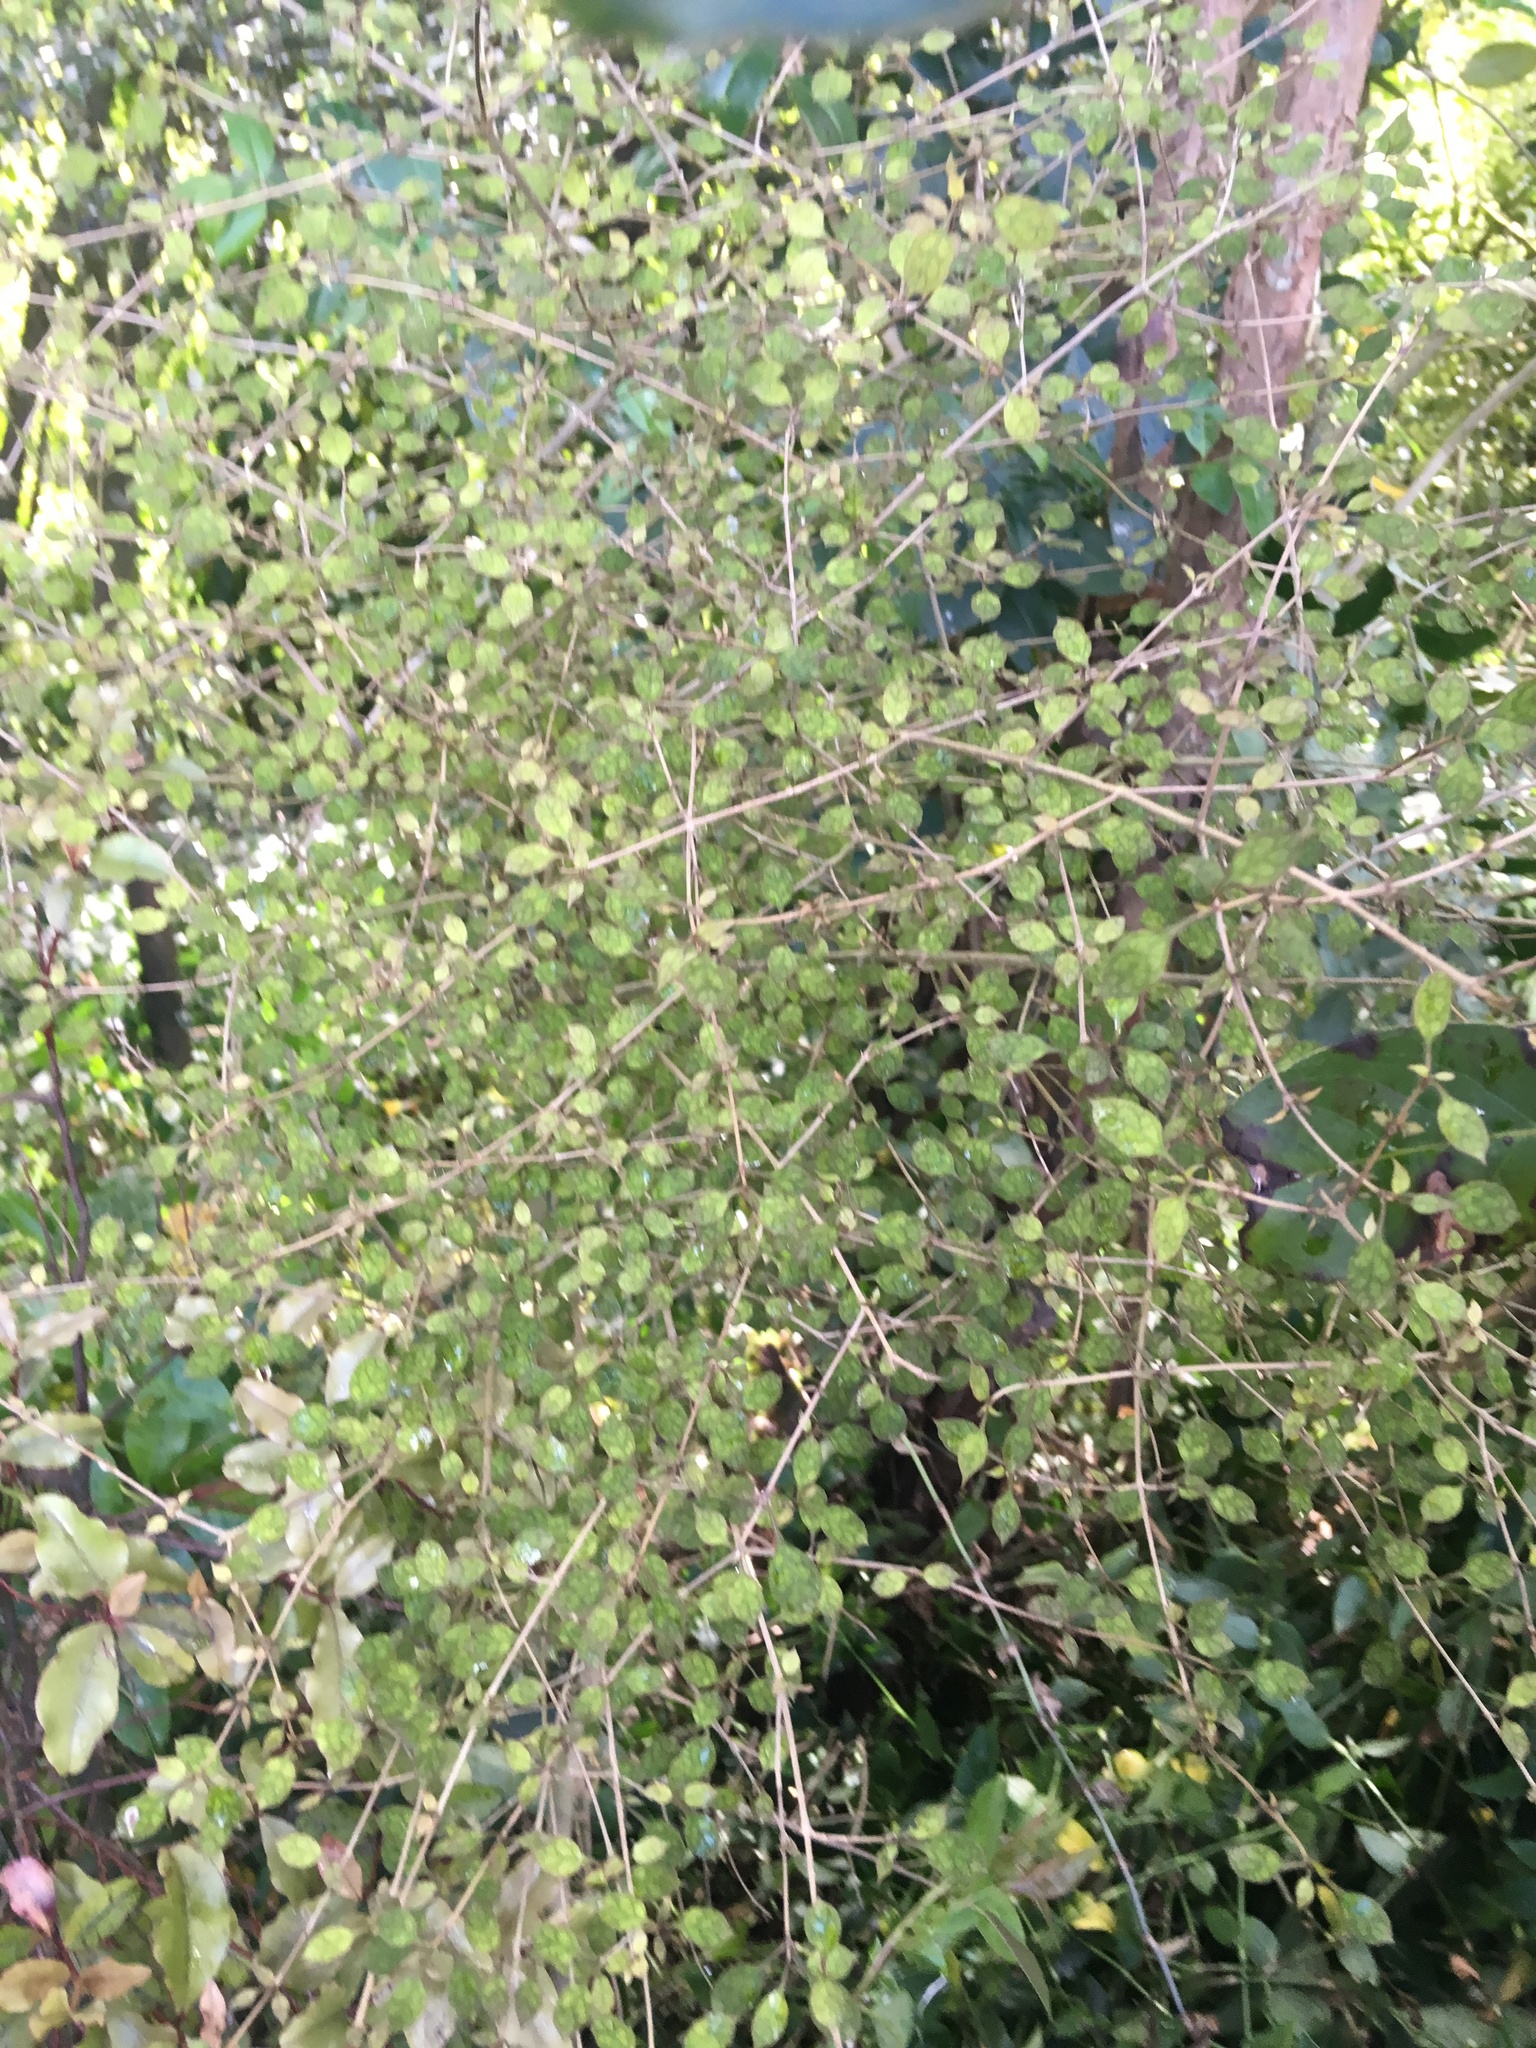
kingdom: Plantae
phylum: Tracheophyta
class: Magnoliopsida
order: Gentianales
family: Rubiaceae
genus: Coprosma
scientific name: Coprosma areolata
